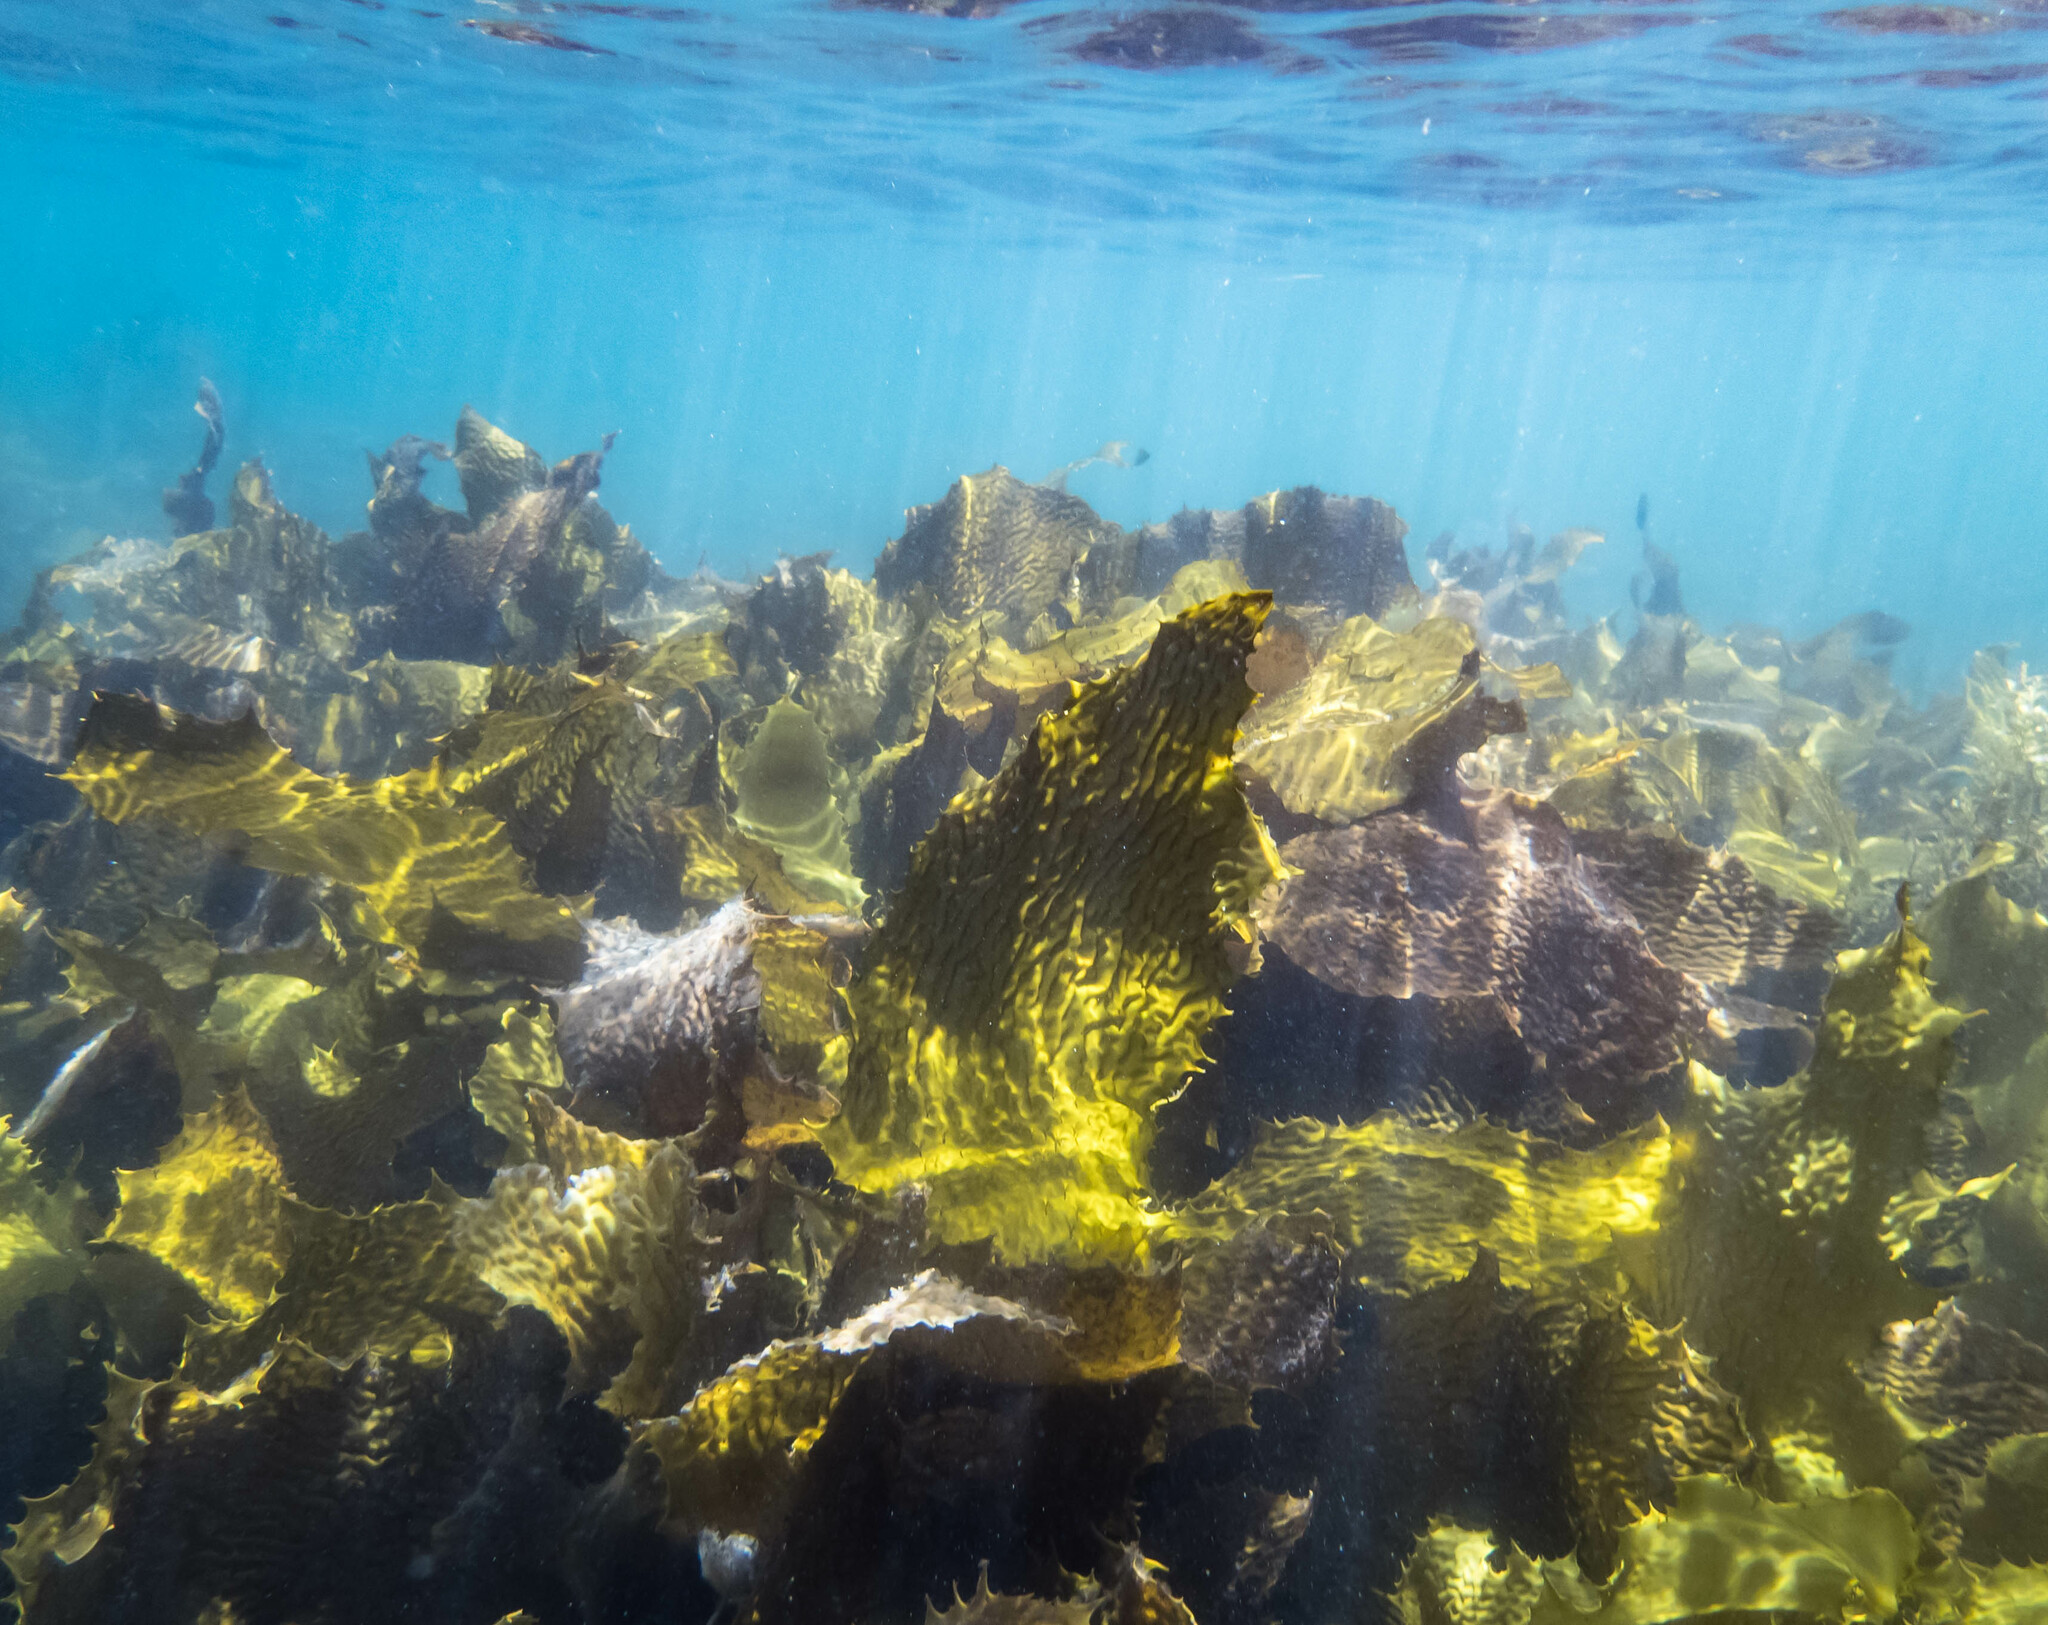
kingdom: Chromista
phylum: Ochrophyta
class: Phaeophyceae
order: Laminariales
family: Lessoniaceae
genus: Ecklonia
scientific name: Ecklonia radiata
